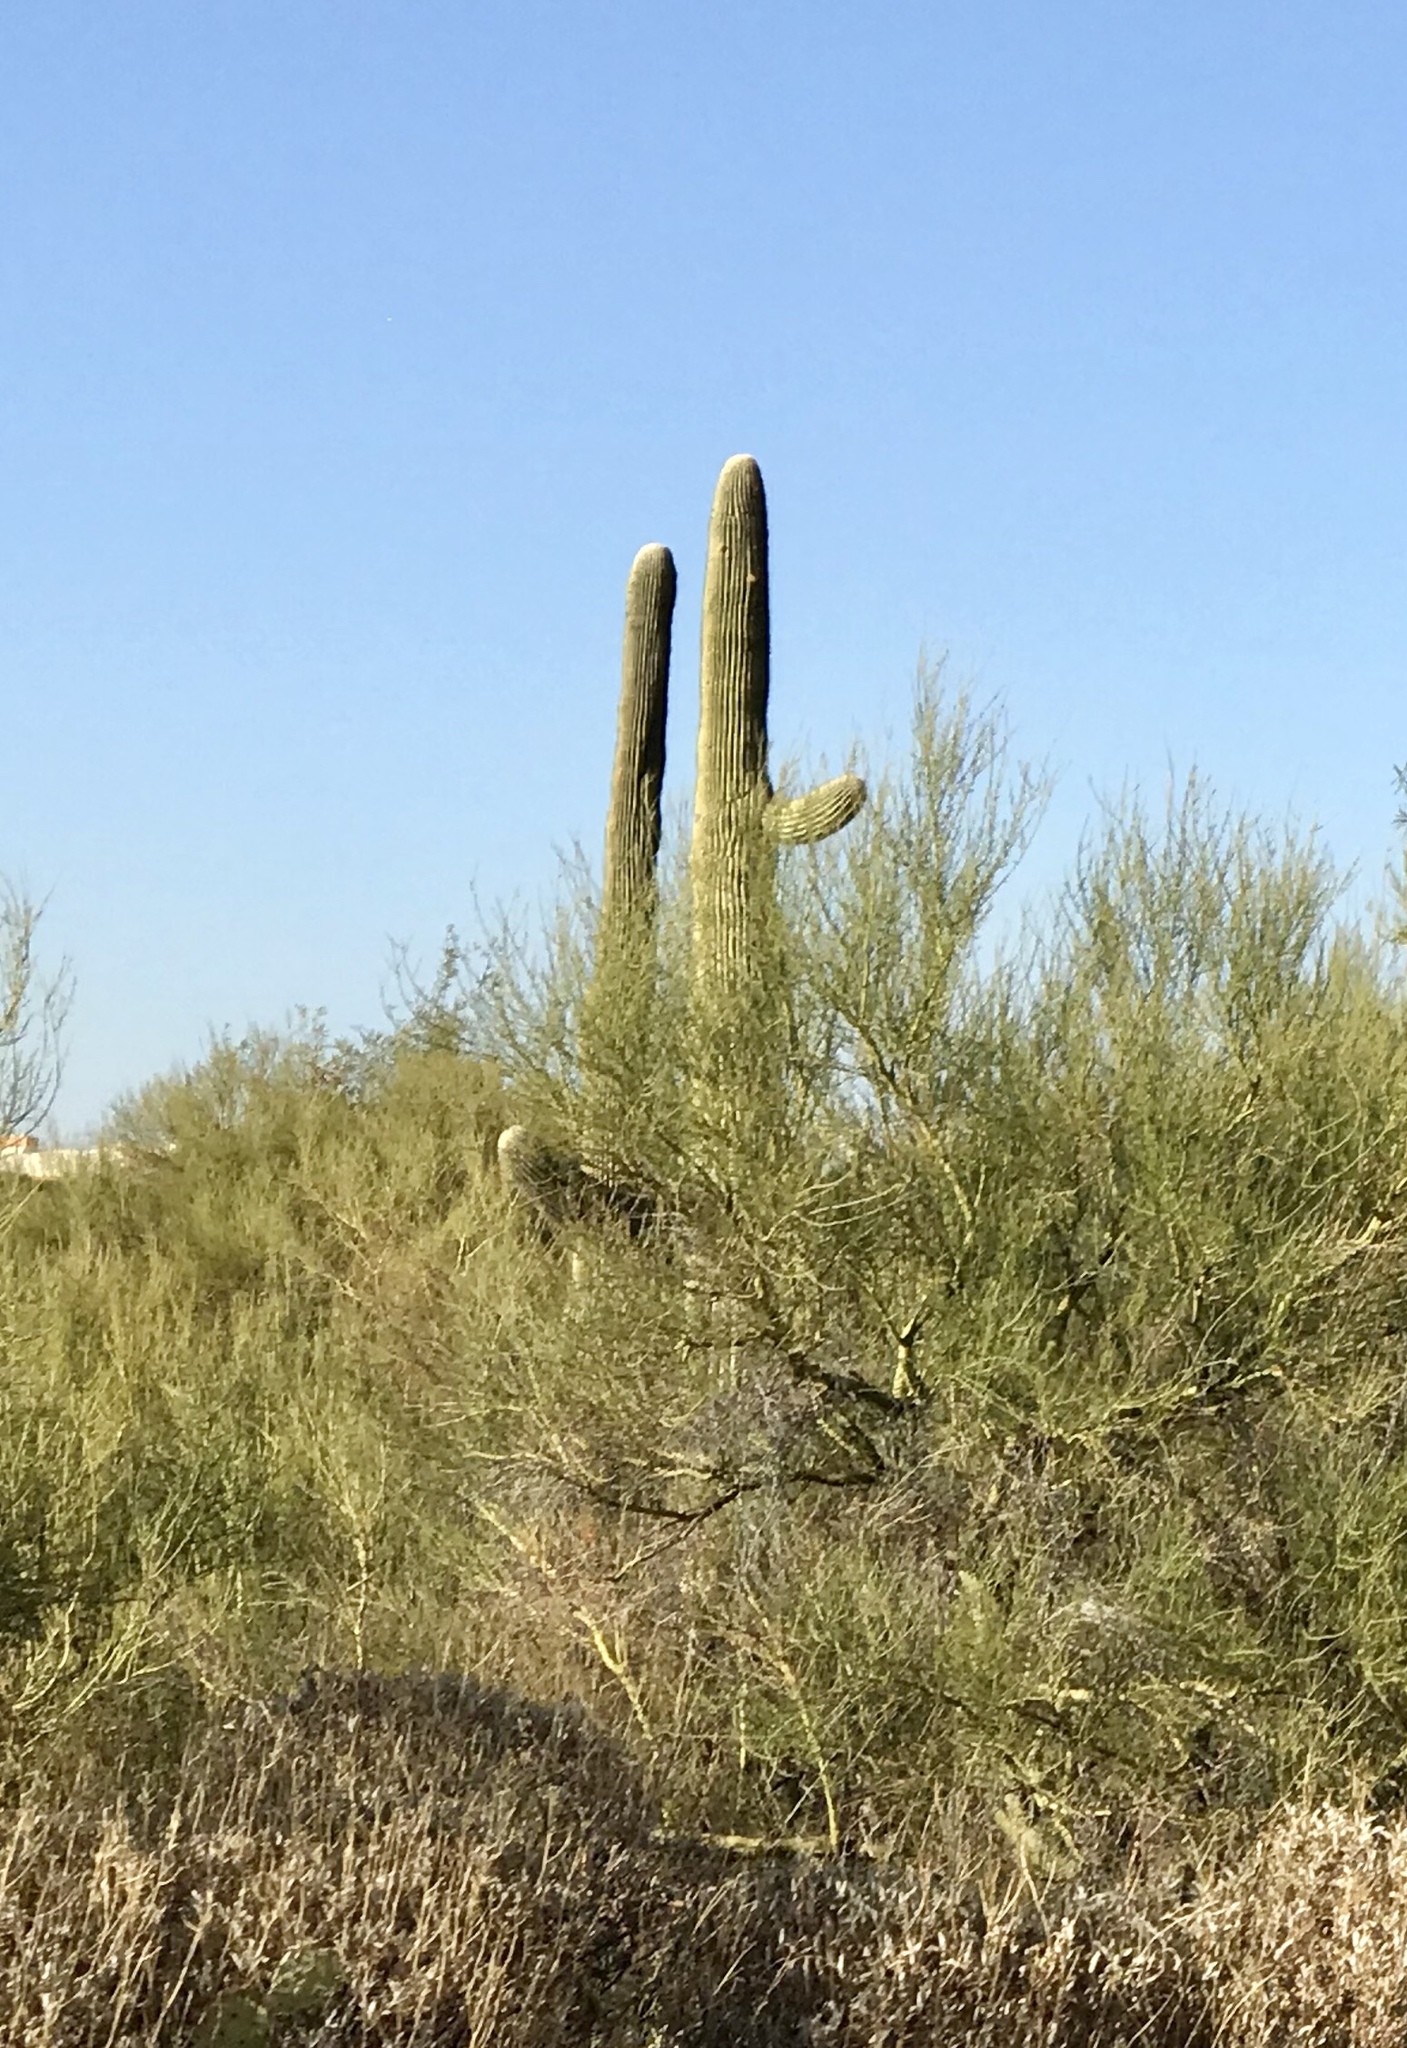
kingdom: Plantae
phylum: Tracheophyta
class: Magnoliopsida
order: Caryophyllales
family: Cactaceae
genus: Carnegiea
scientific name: Carnegiea gigantea
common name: Saguaro
